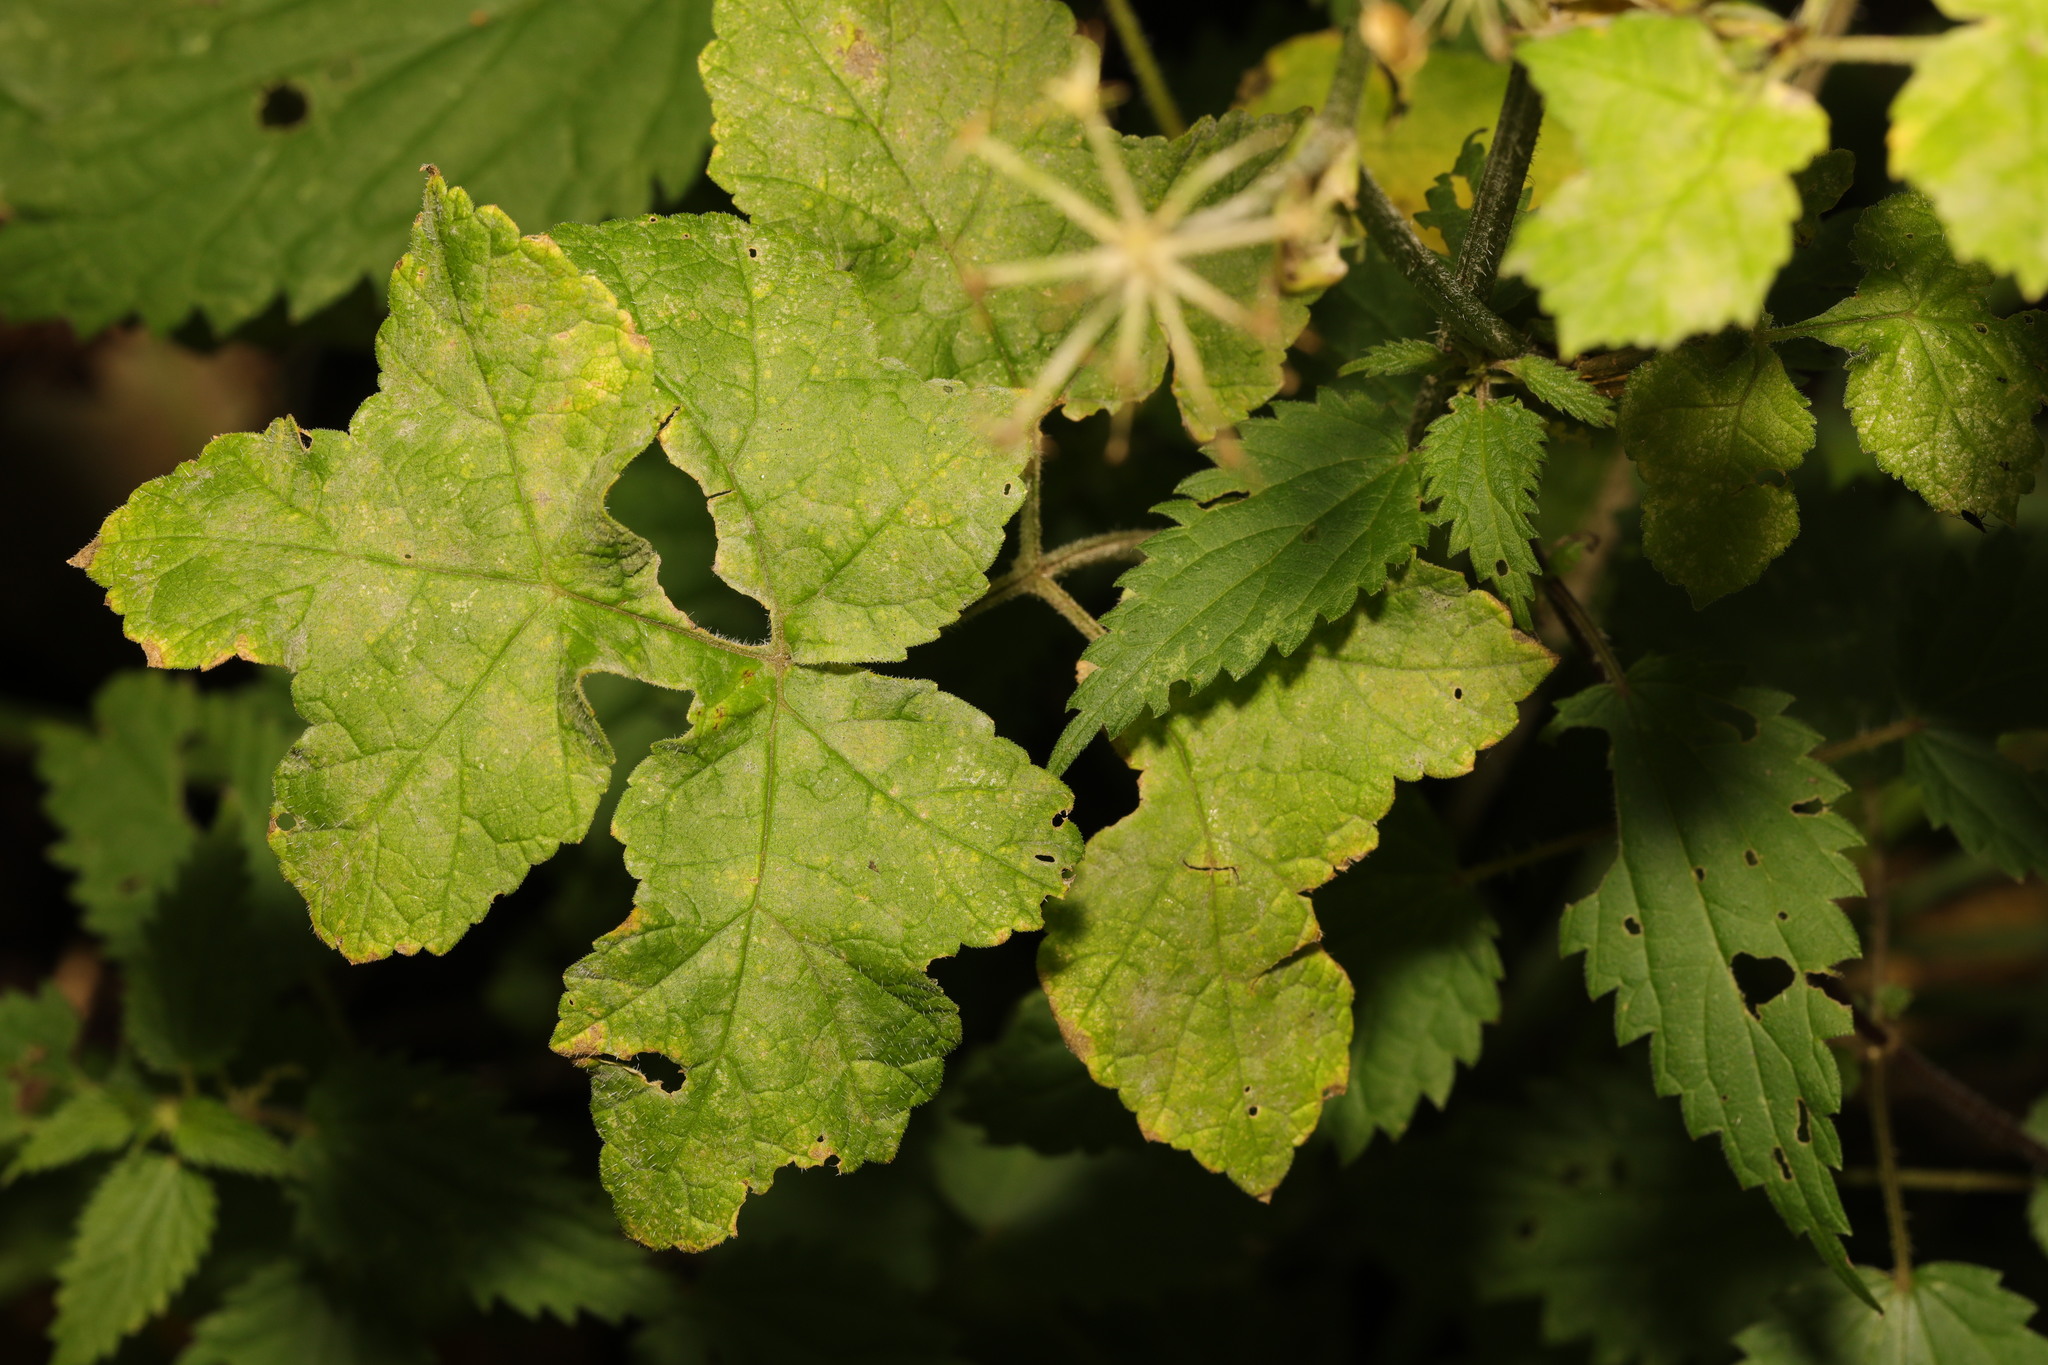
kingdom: Plantae
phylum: Tracheophyta
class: Magnoliopsida
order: Apiales
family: Apiaceae
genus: Heracleum
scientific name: Heracleum sphondylium
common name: Hogweed
